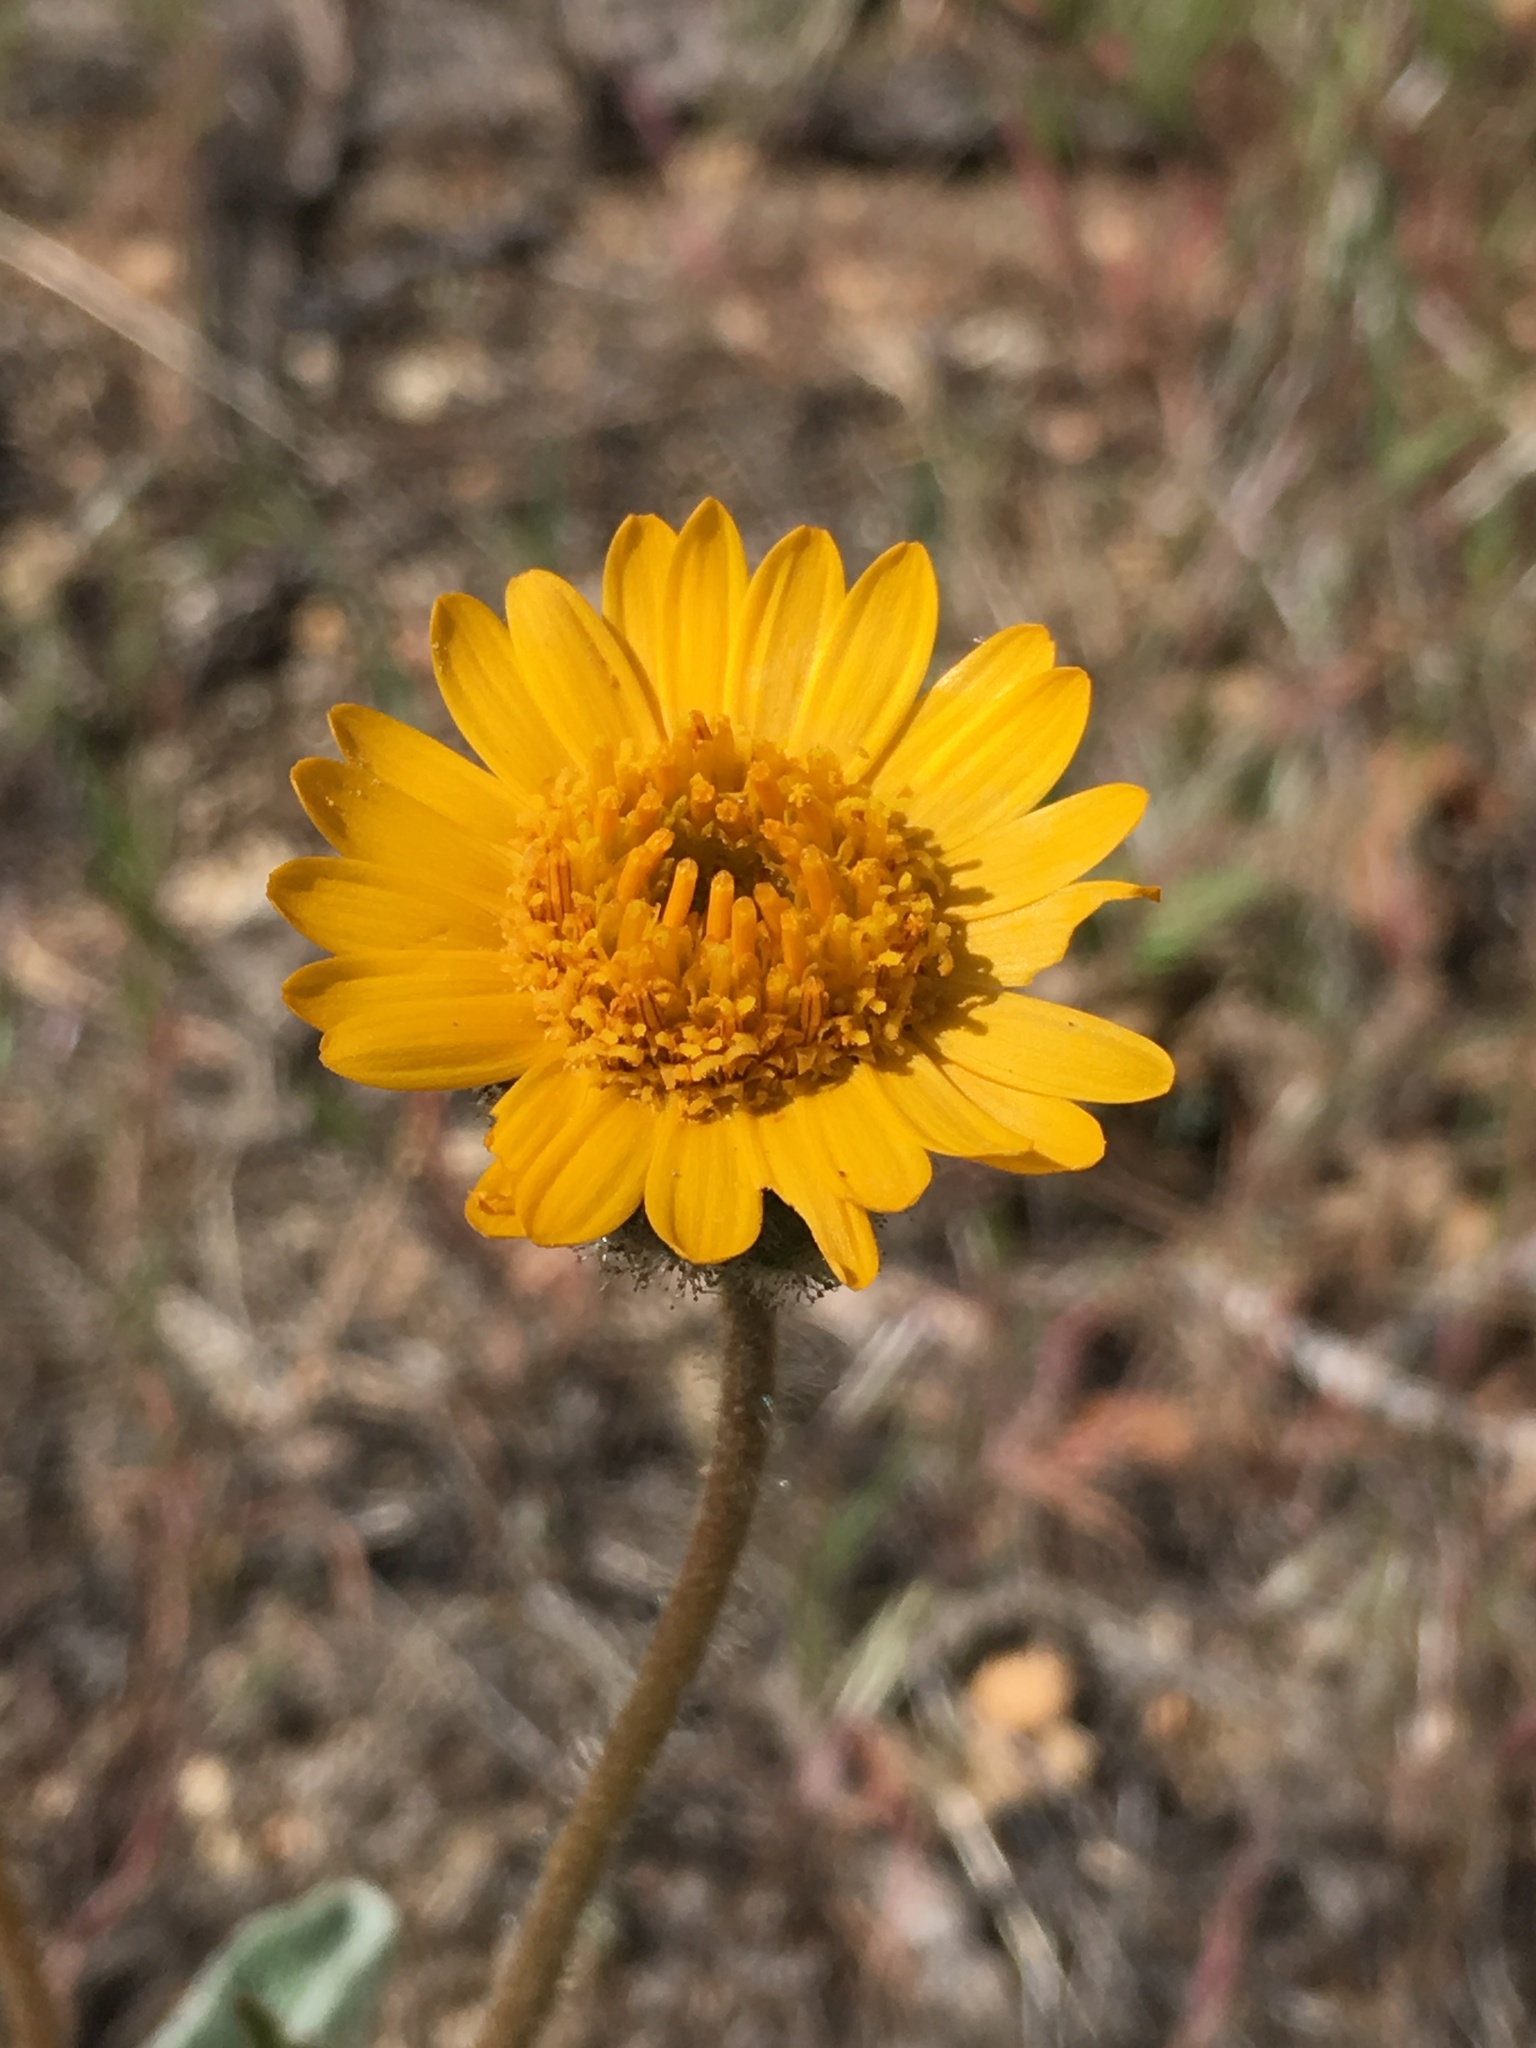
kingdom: Plantae
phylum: Tracheophyta
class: Magnoliopsida
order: Asterales
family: Asteraceae
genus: Hulsea
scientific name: Hulsea vestita
